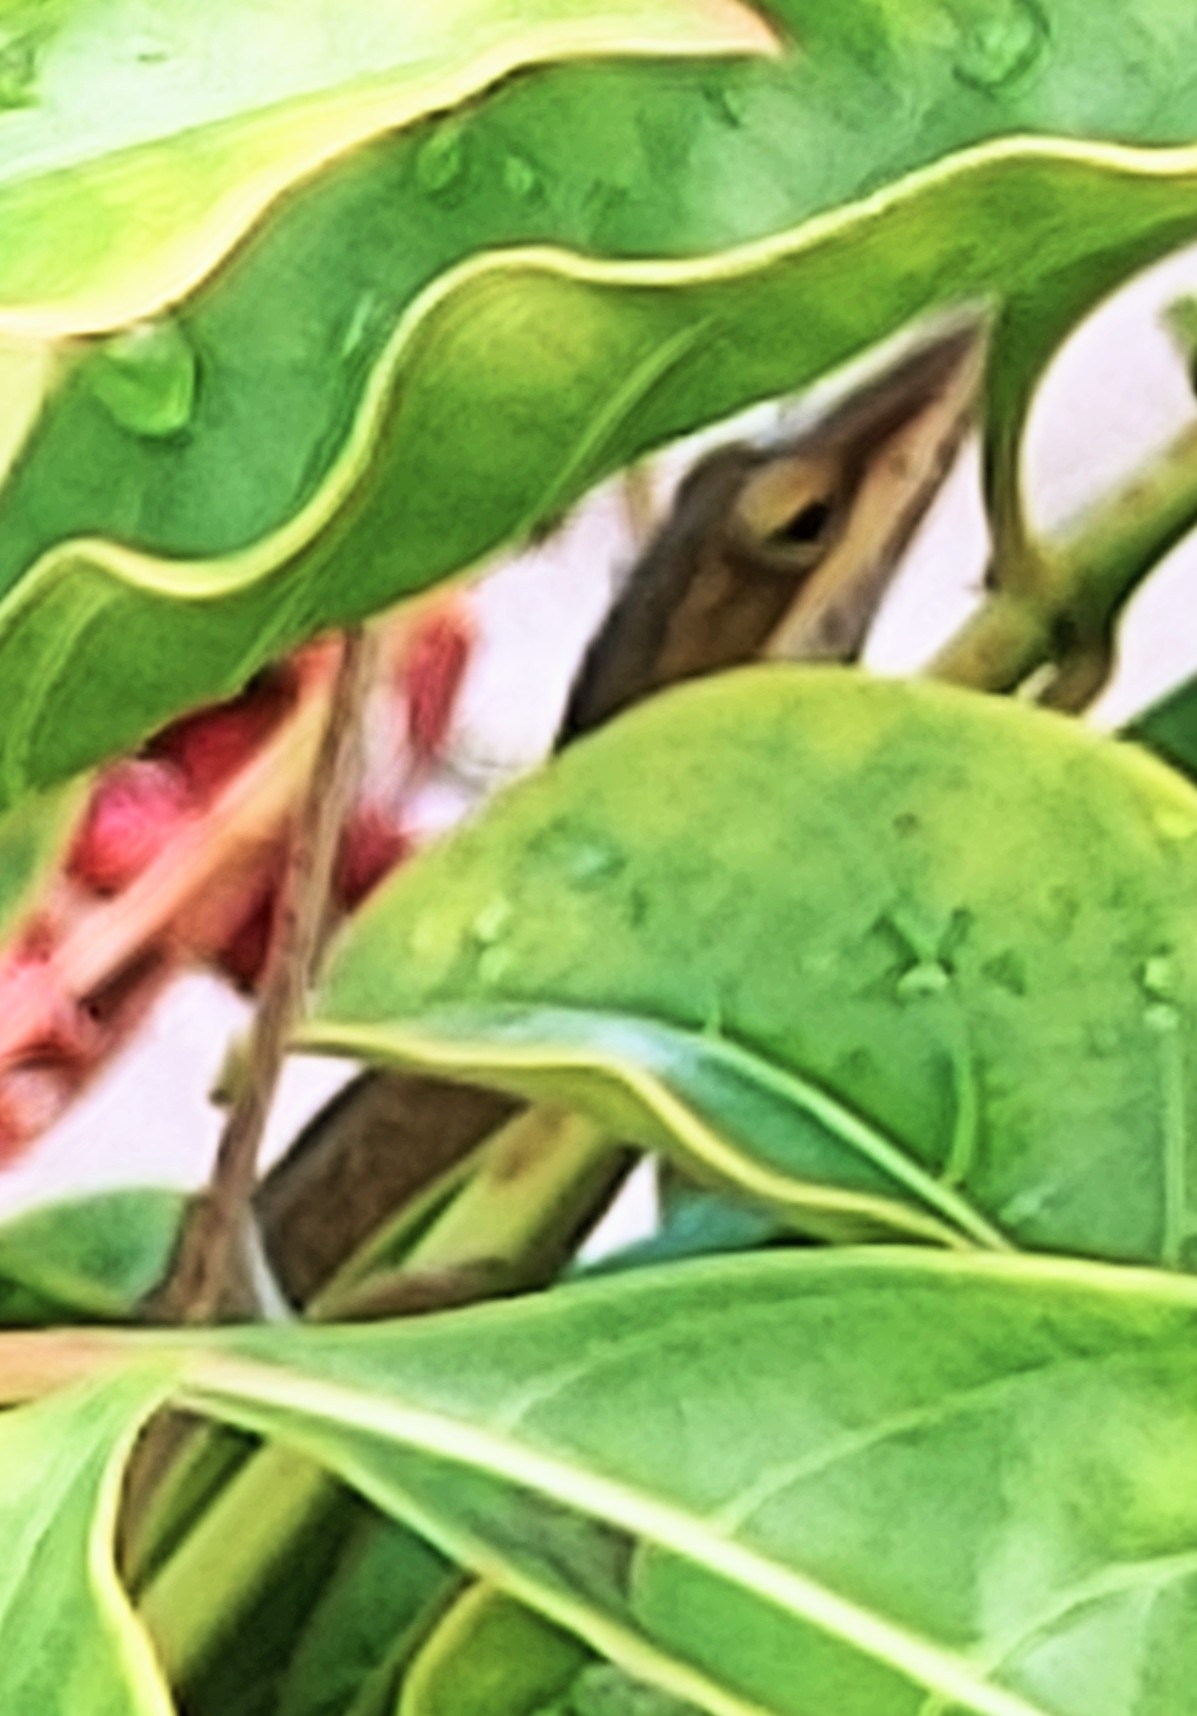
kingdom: Animalia
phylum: Chordata
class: Squamata
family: Dactyloidae
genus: Anolis
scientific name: Anolis carolinensis
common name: Green anole
